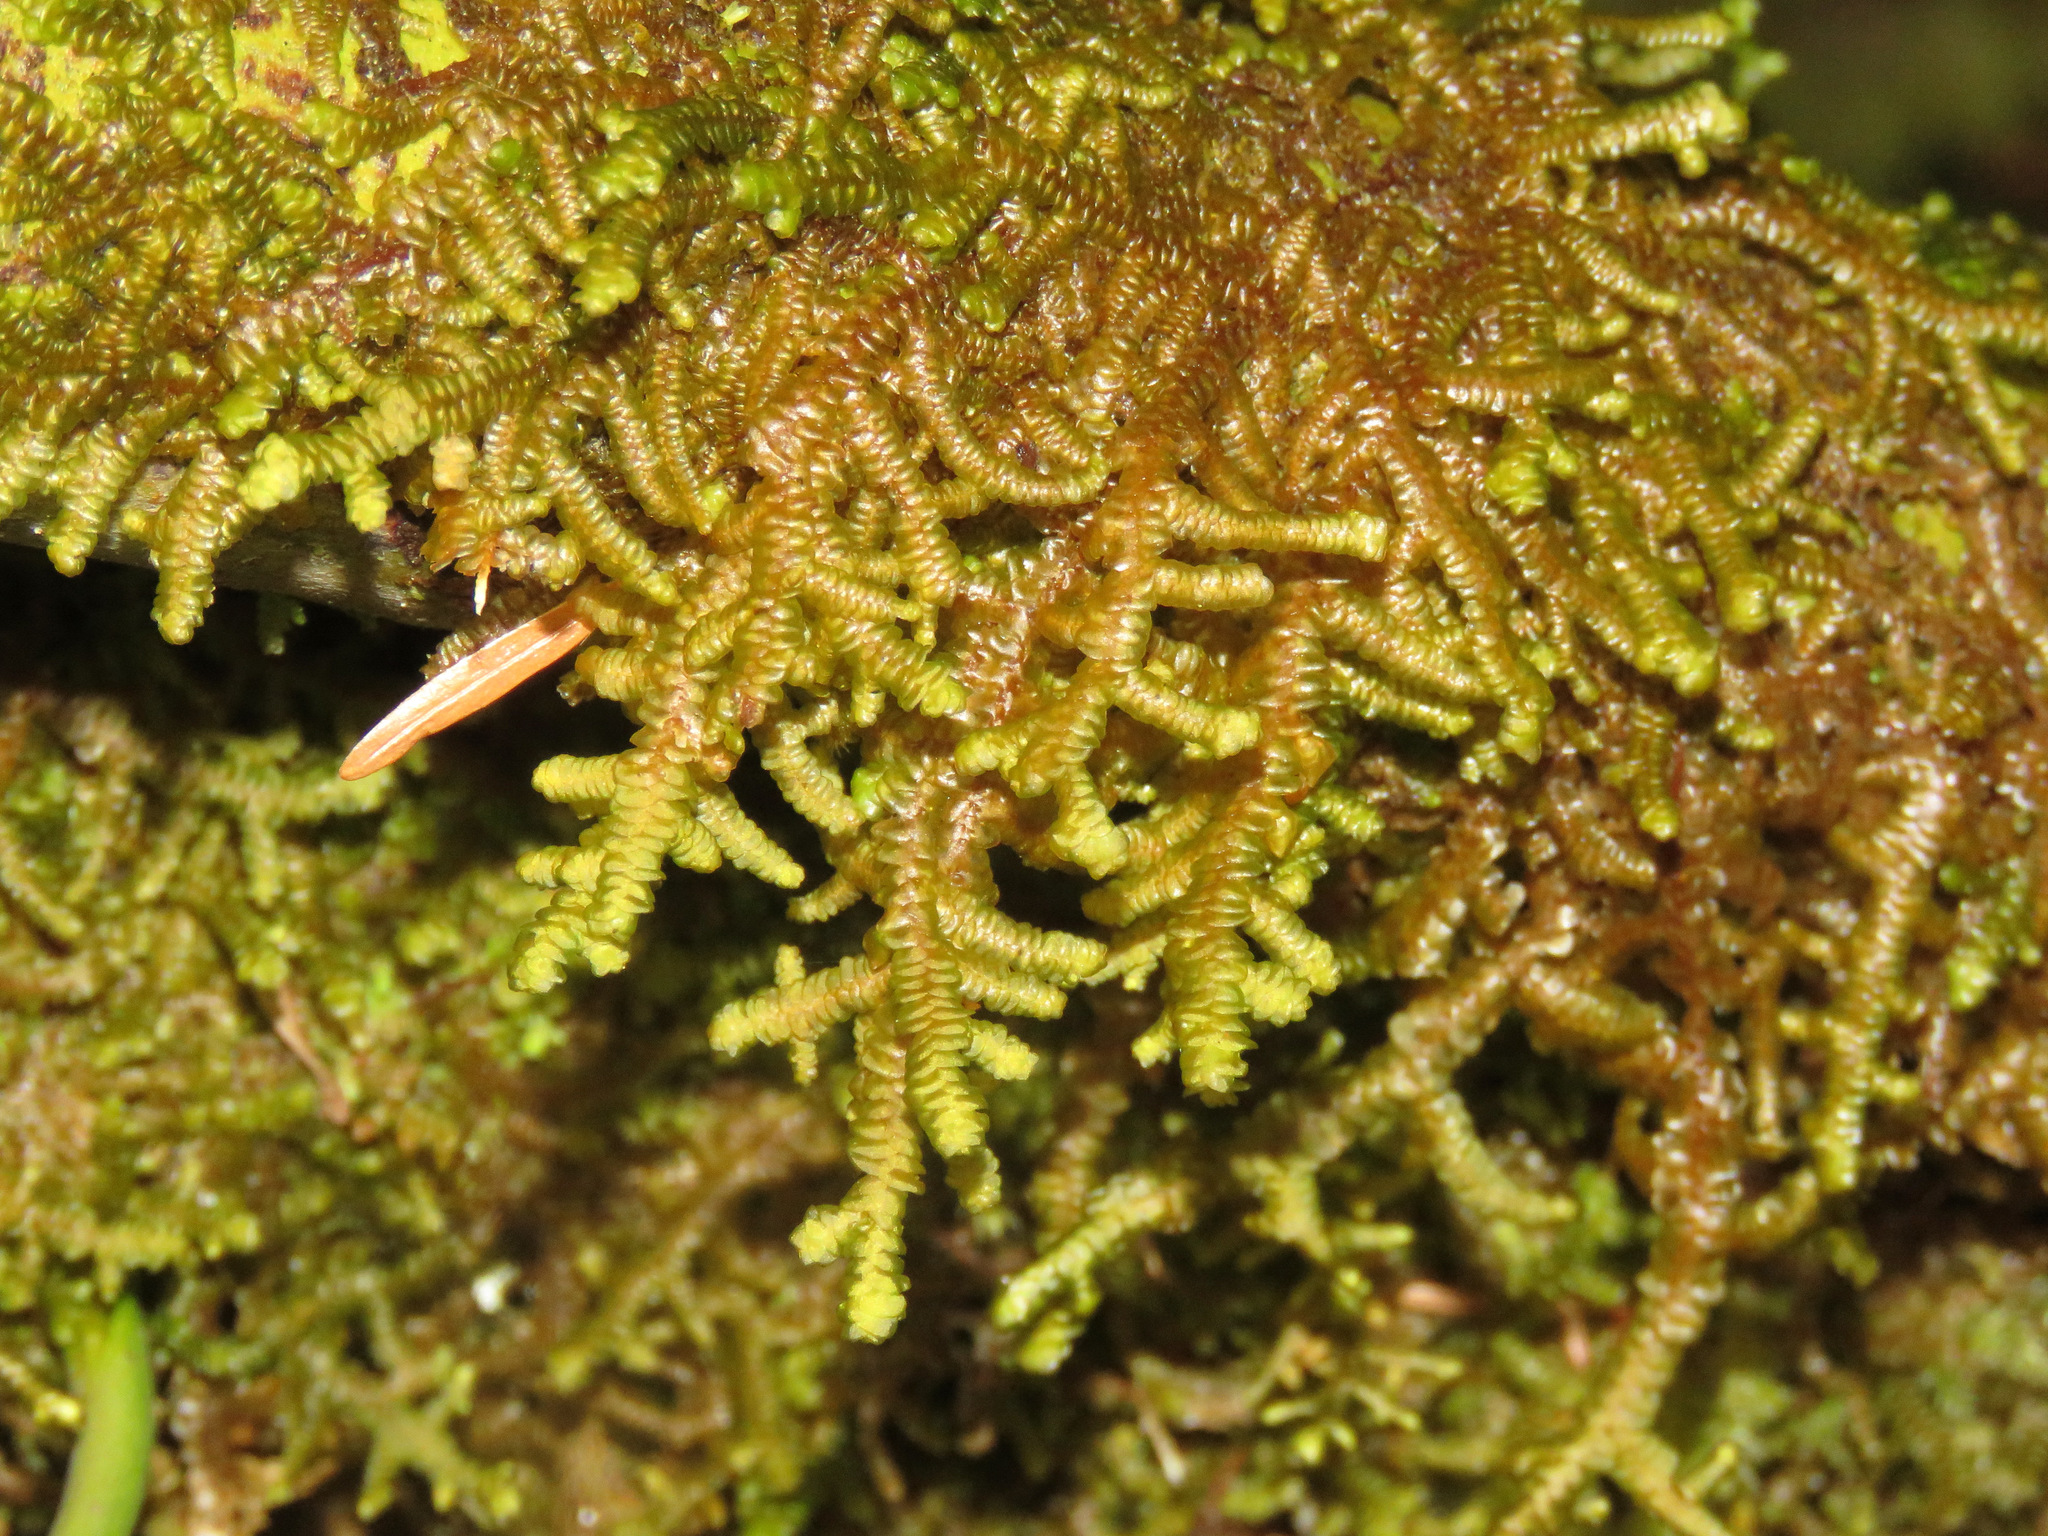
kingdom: Plantae
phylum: Marchantiophyta
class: Jungermanniopsida
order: Porellales
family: Porellaceae
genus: Porella
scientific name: Porella navicularis
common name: Tree ruffle liverwort
